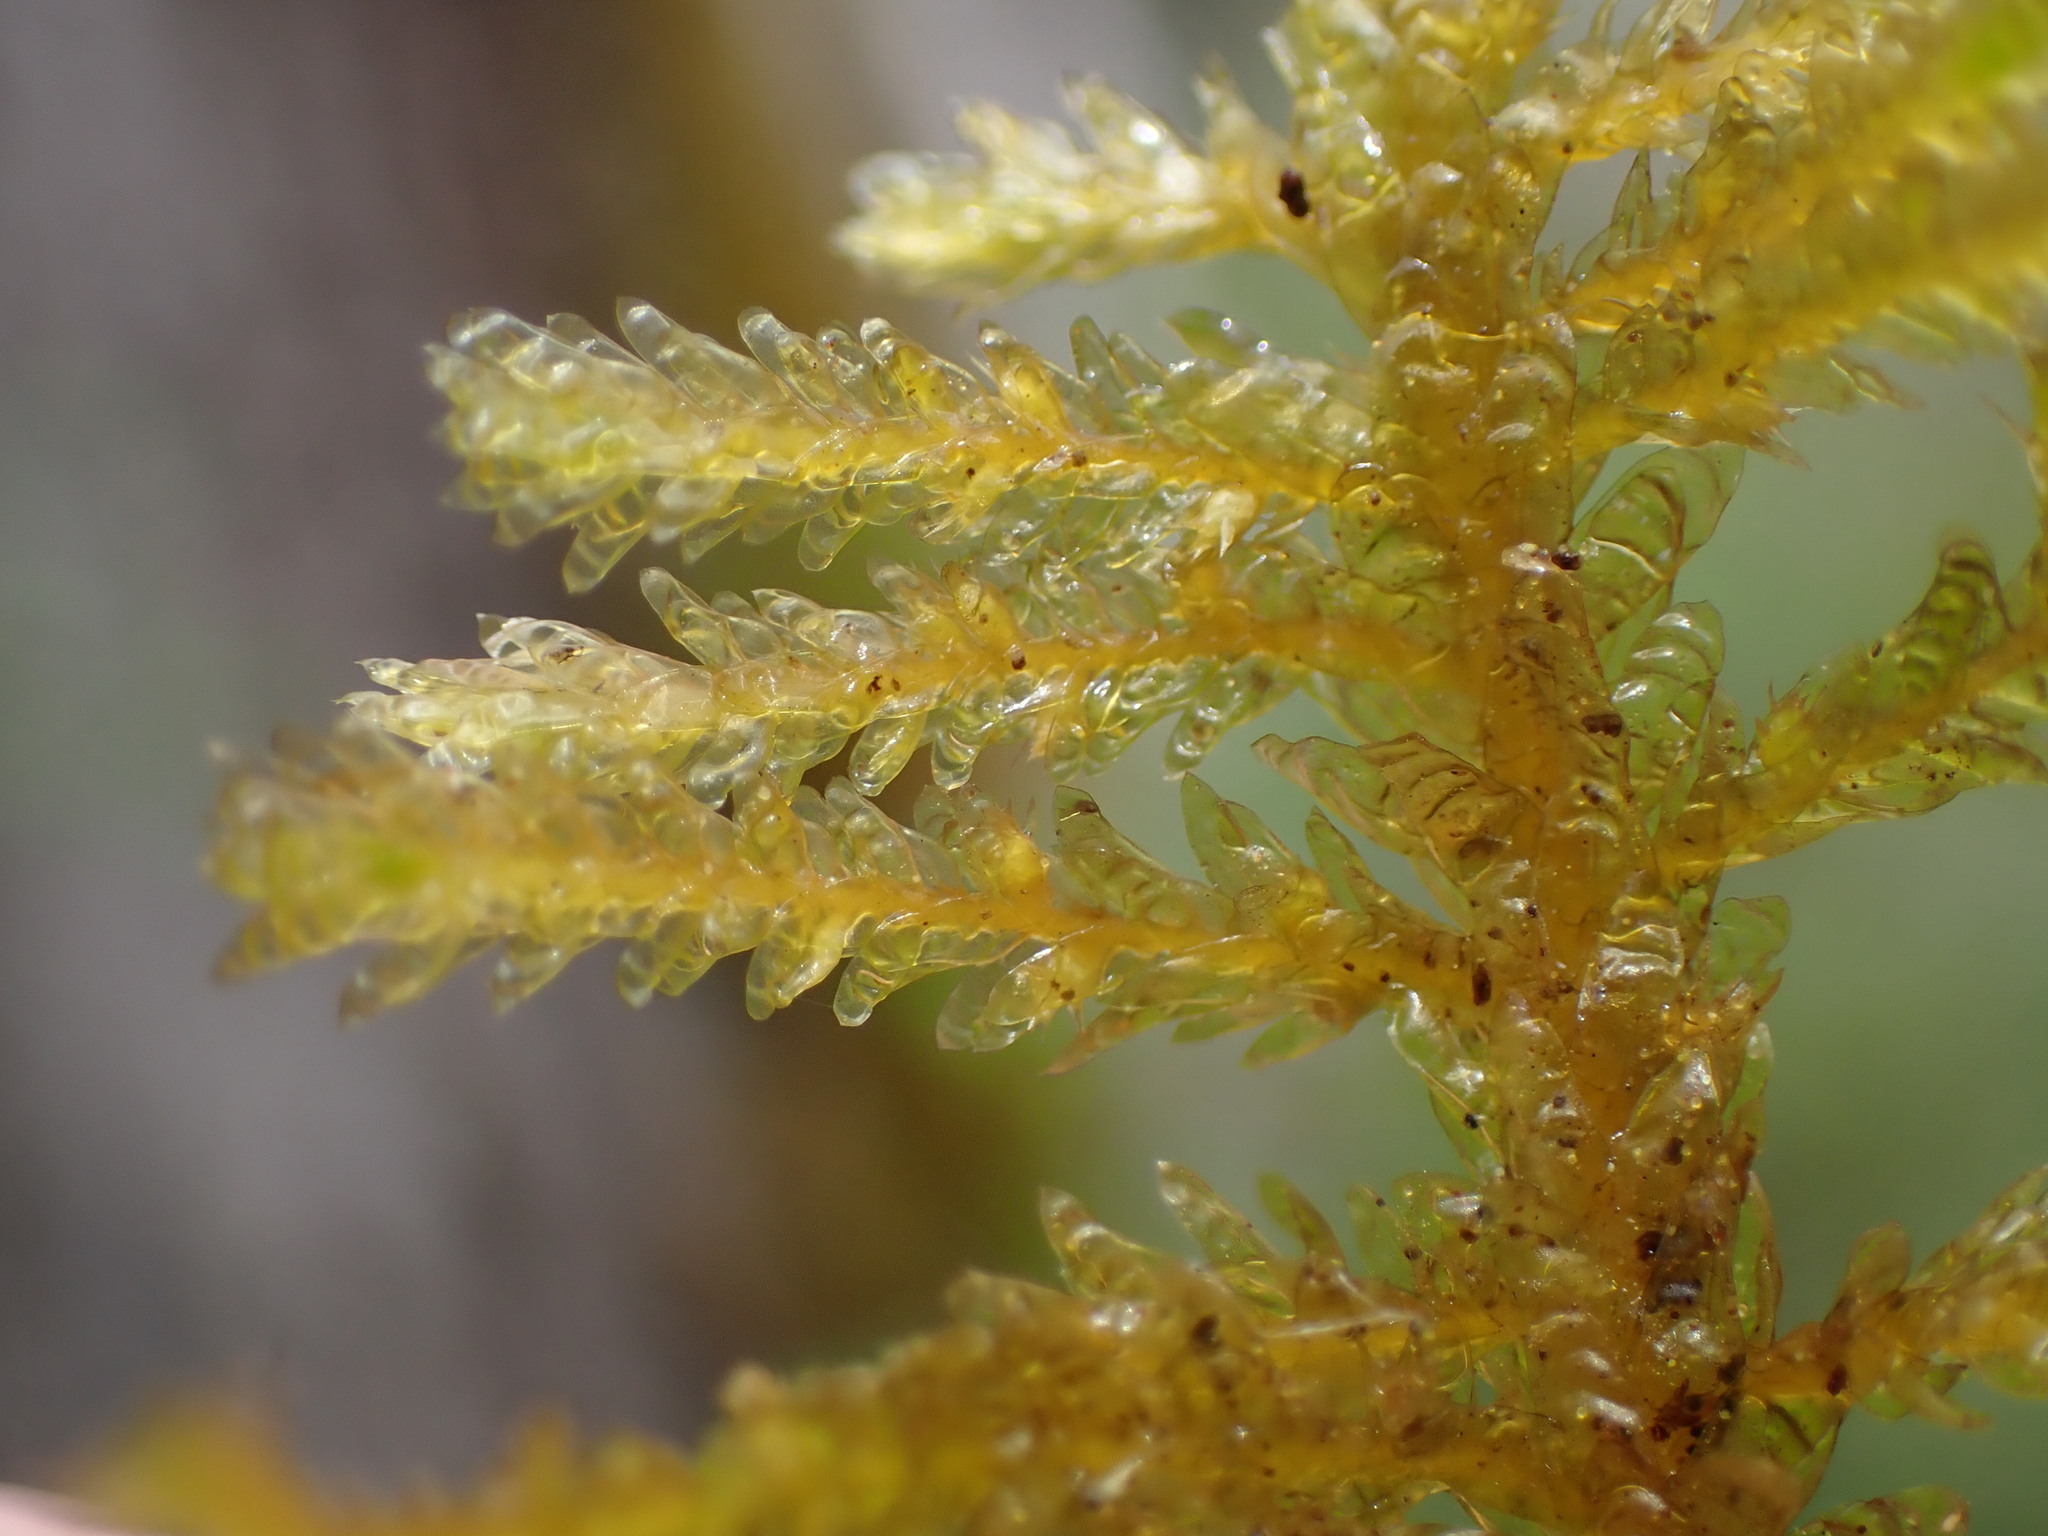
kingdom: Plantae
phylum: Bryophyta
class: Bryopsida
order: Hypnales
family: Neckeraceae
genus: Metaneckera
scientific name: Metaneckera menziesii
